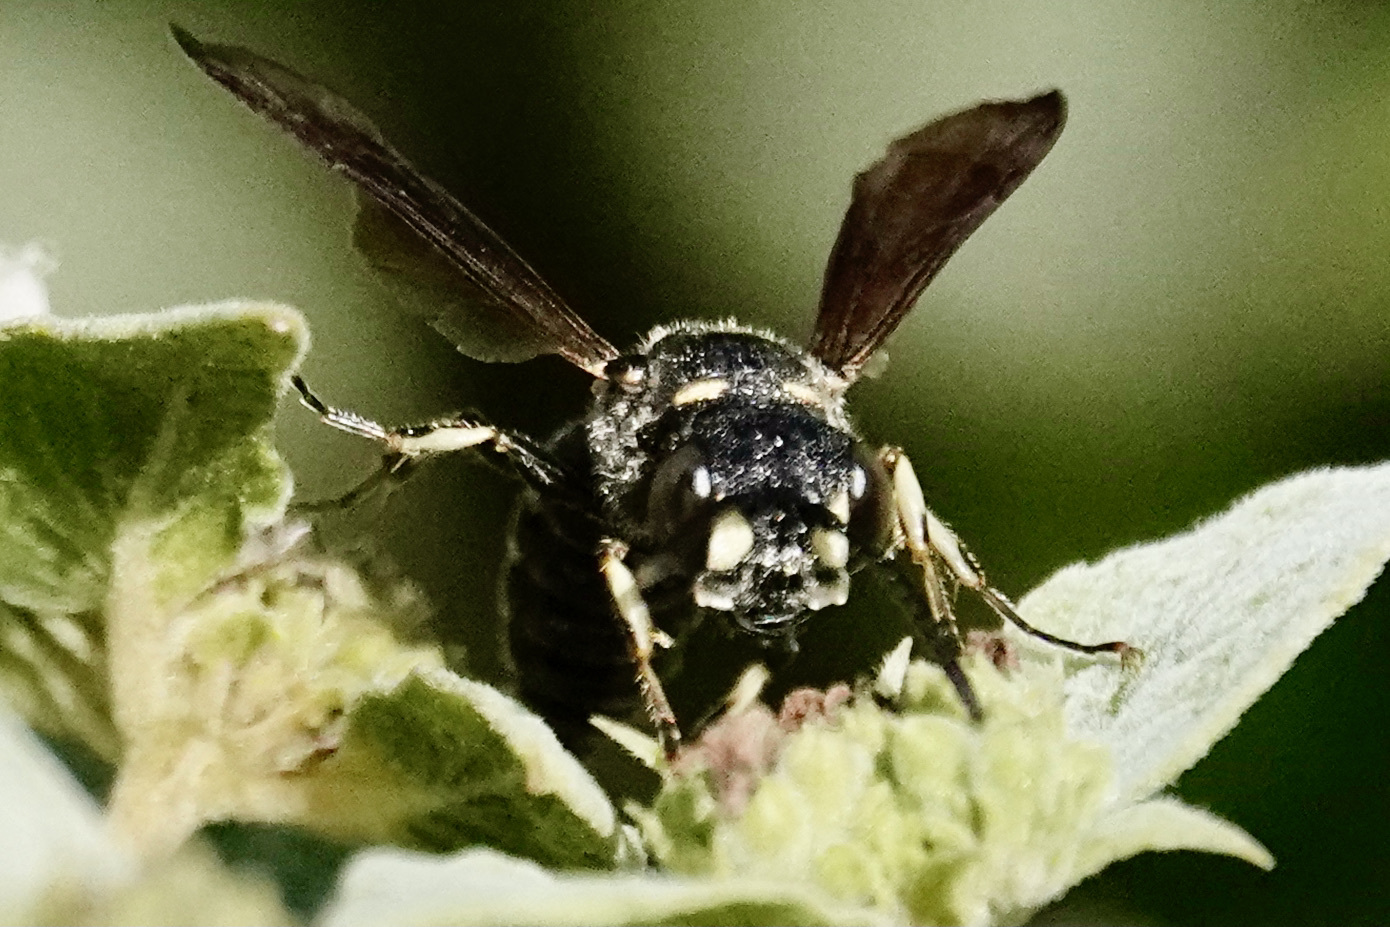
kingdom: Animalia
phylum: Arthropoda
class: Insecta
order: Hymenoptera
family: Crabronidae
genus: Cerceris
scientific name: Cerceris fumipennis
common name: Smokey-winged beetle bandit wasp
